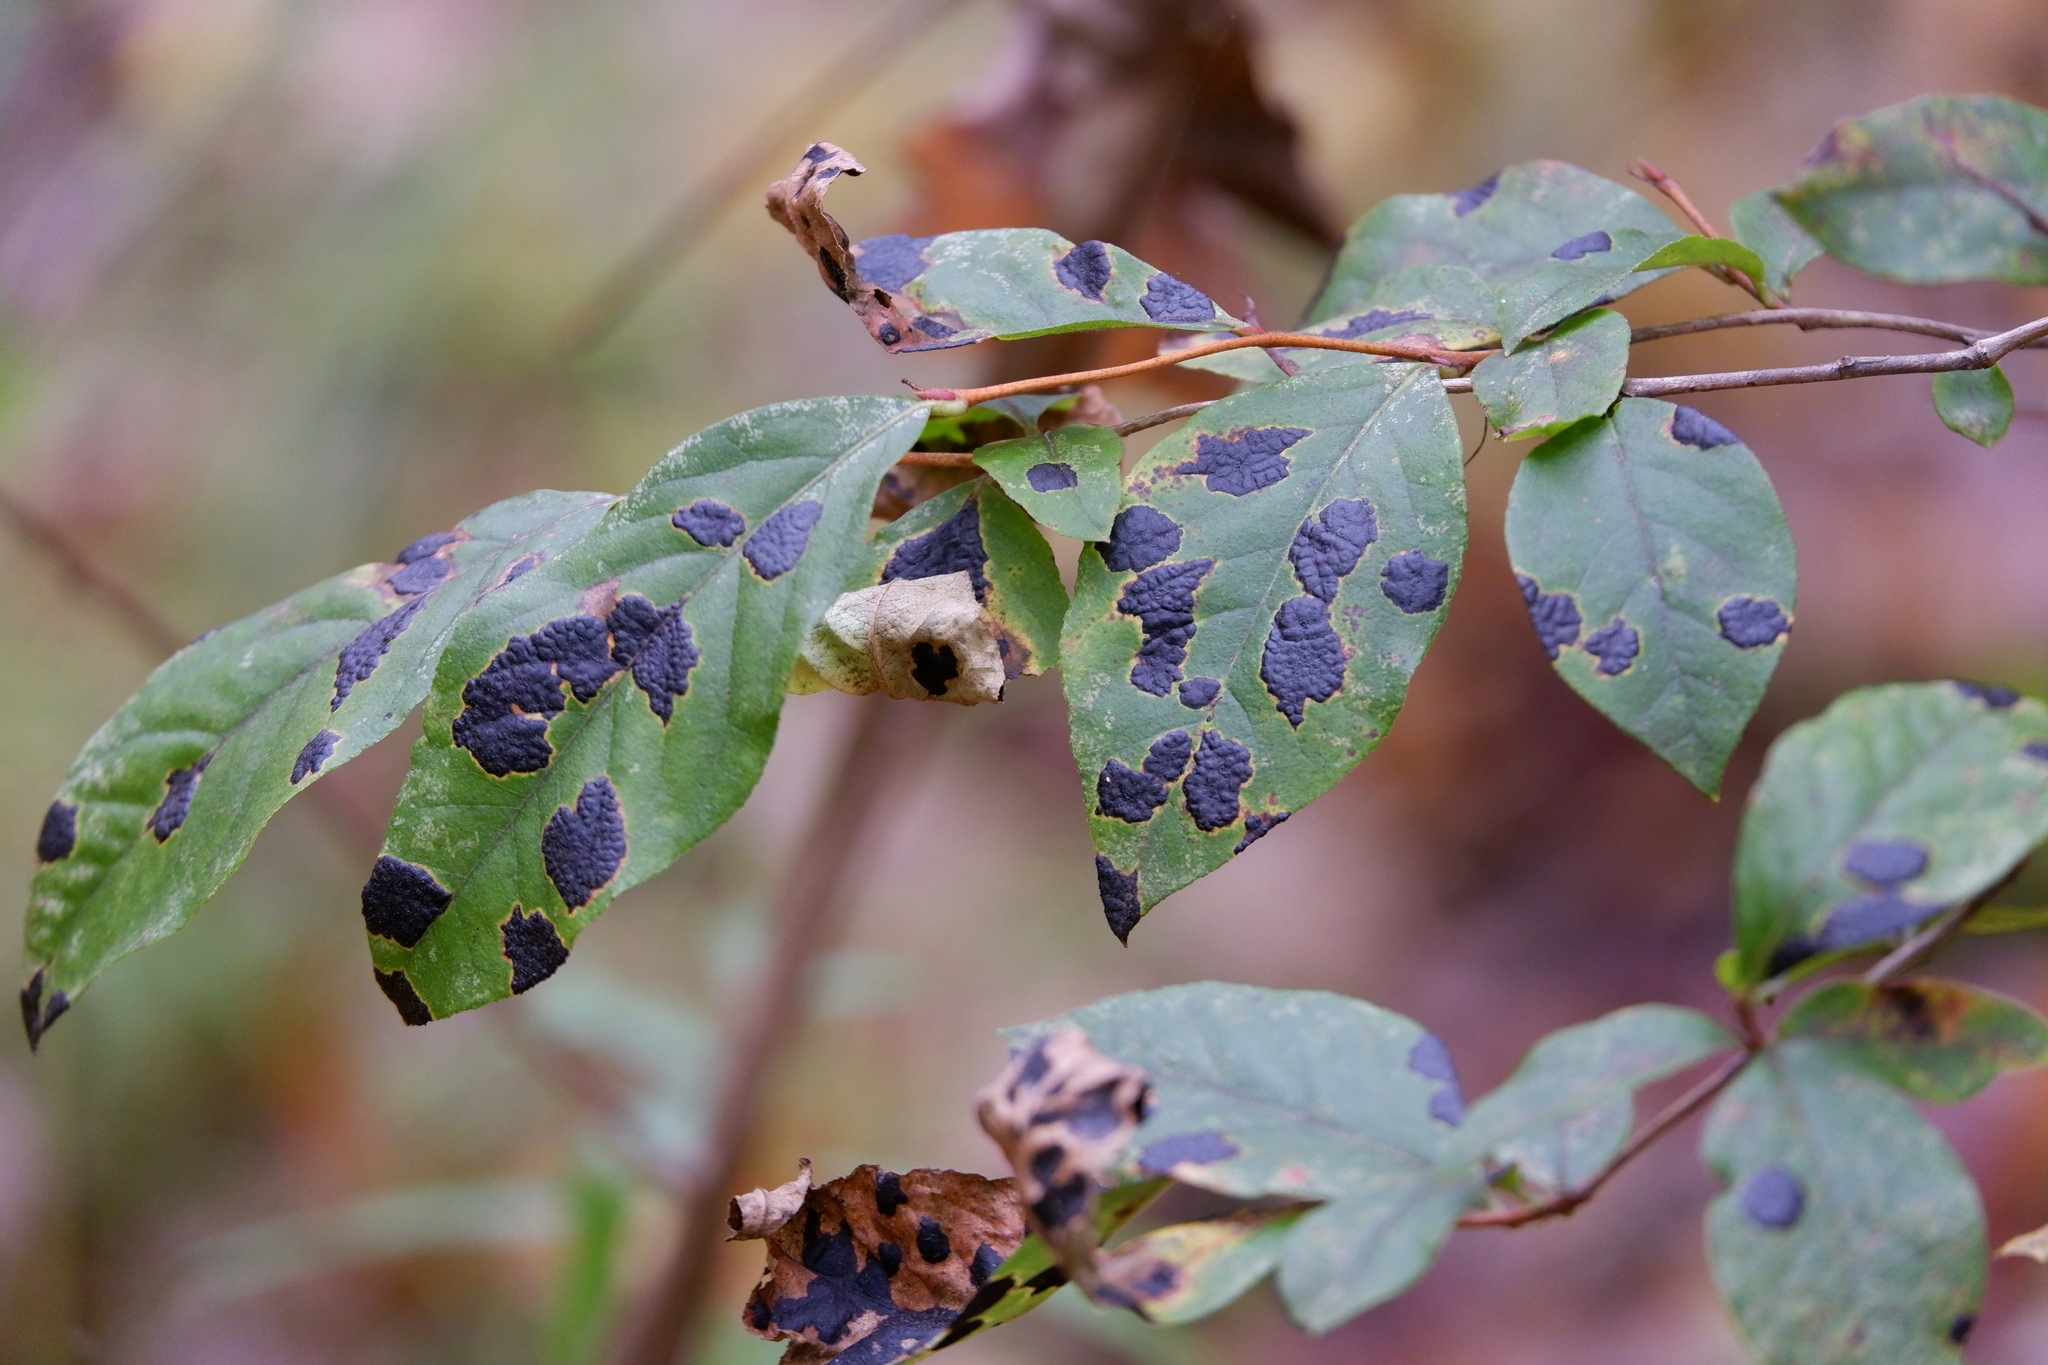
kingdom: Fungi
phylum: Ascomycota
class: Leotiomycetes
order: Rhytismatales
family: Rhytismataceae
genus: Rhytisma
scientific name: Rhytisma
